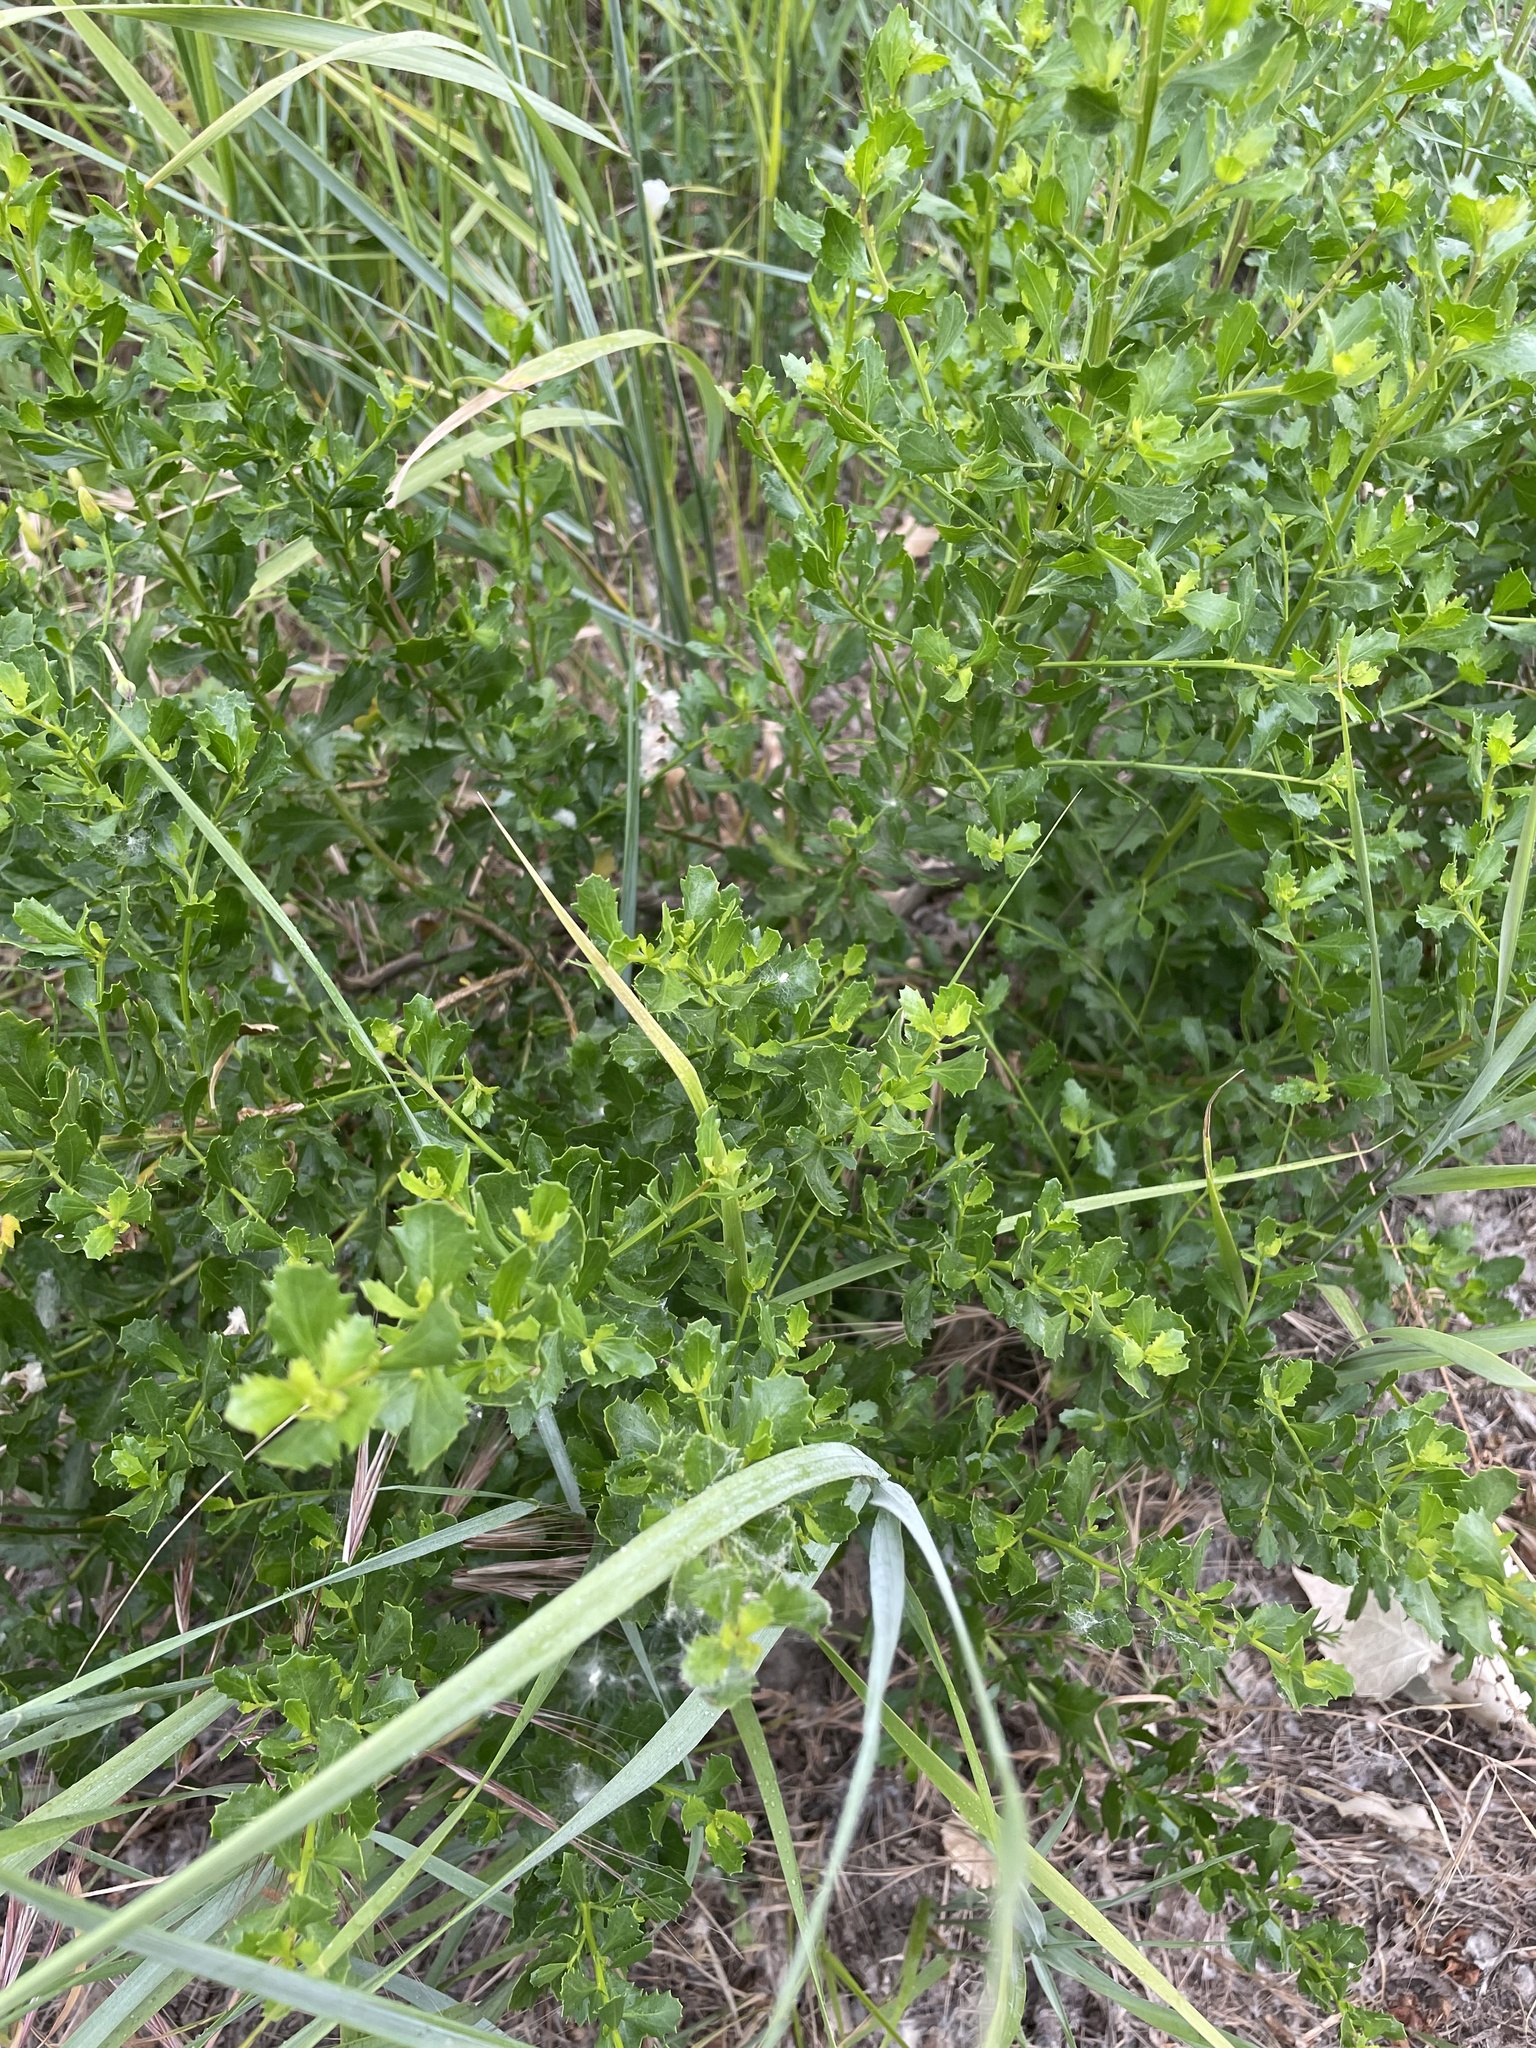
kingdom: Plantae
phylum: Tracheophyta
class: Magnoliopsida
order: Asterales
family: Asteraceae
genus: Baccharis
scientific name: Baccharis pilularis
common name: Coyotebrush
